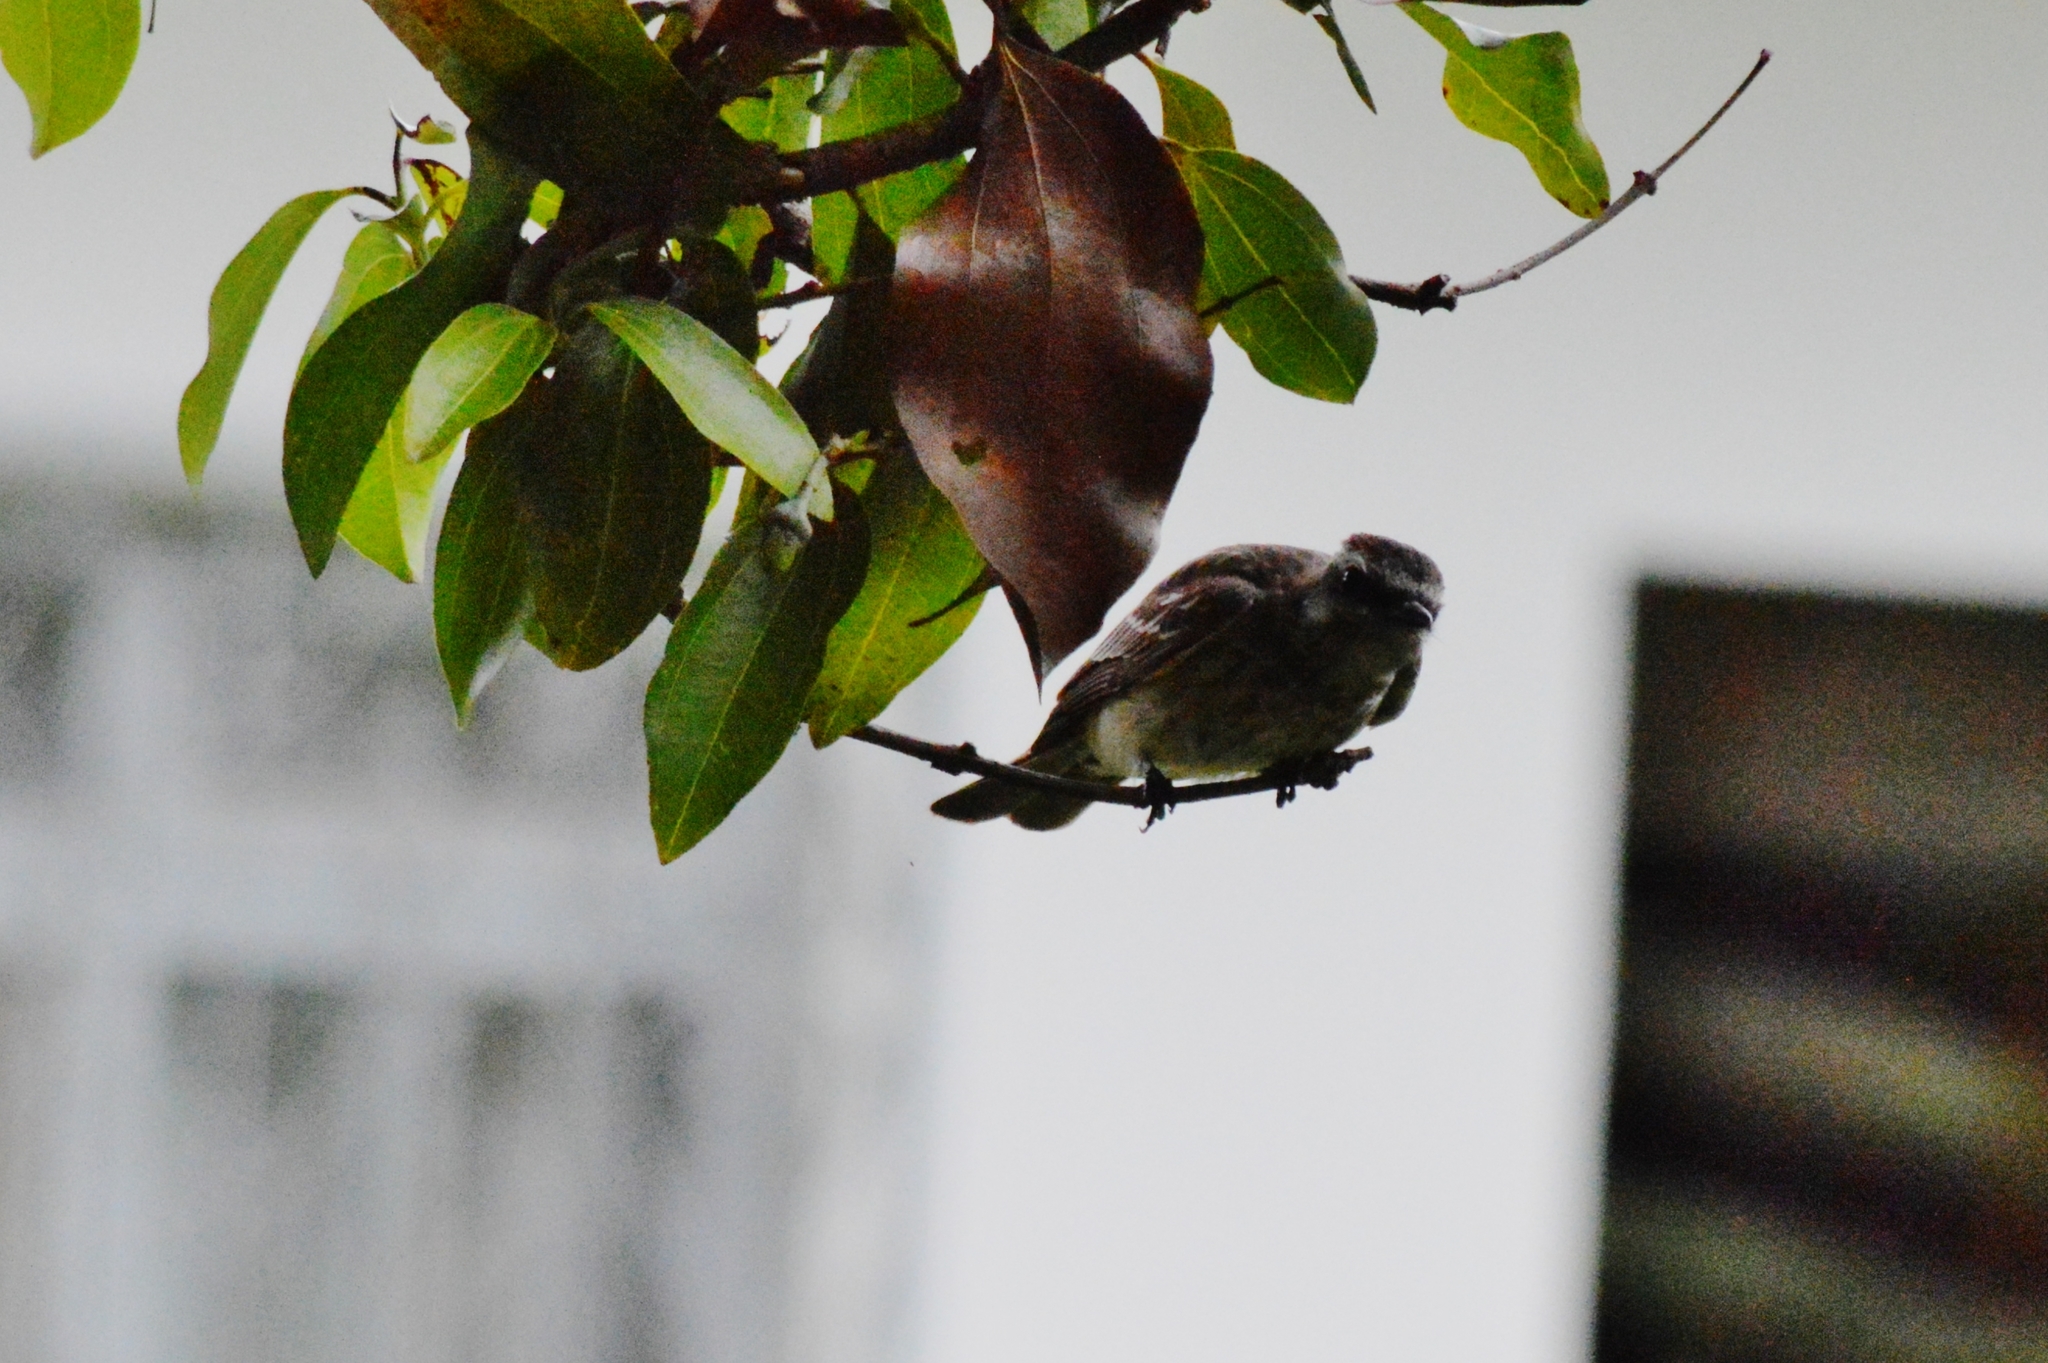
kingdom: Animalia
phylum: Chordata
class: Aves
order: Passeriformes
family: Tyrannidae
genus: Empidonomus
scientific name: Empidonomus varius
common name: Variegated flycatcher
